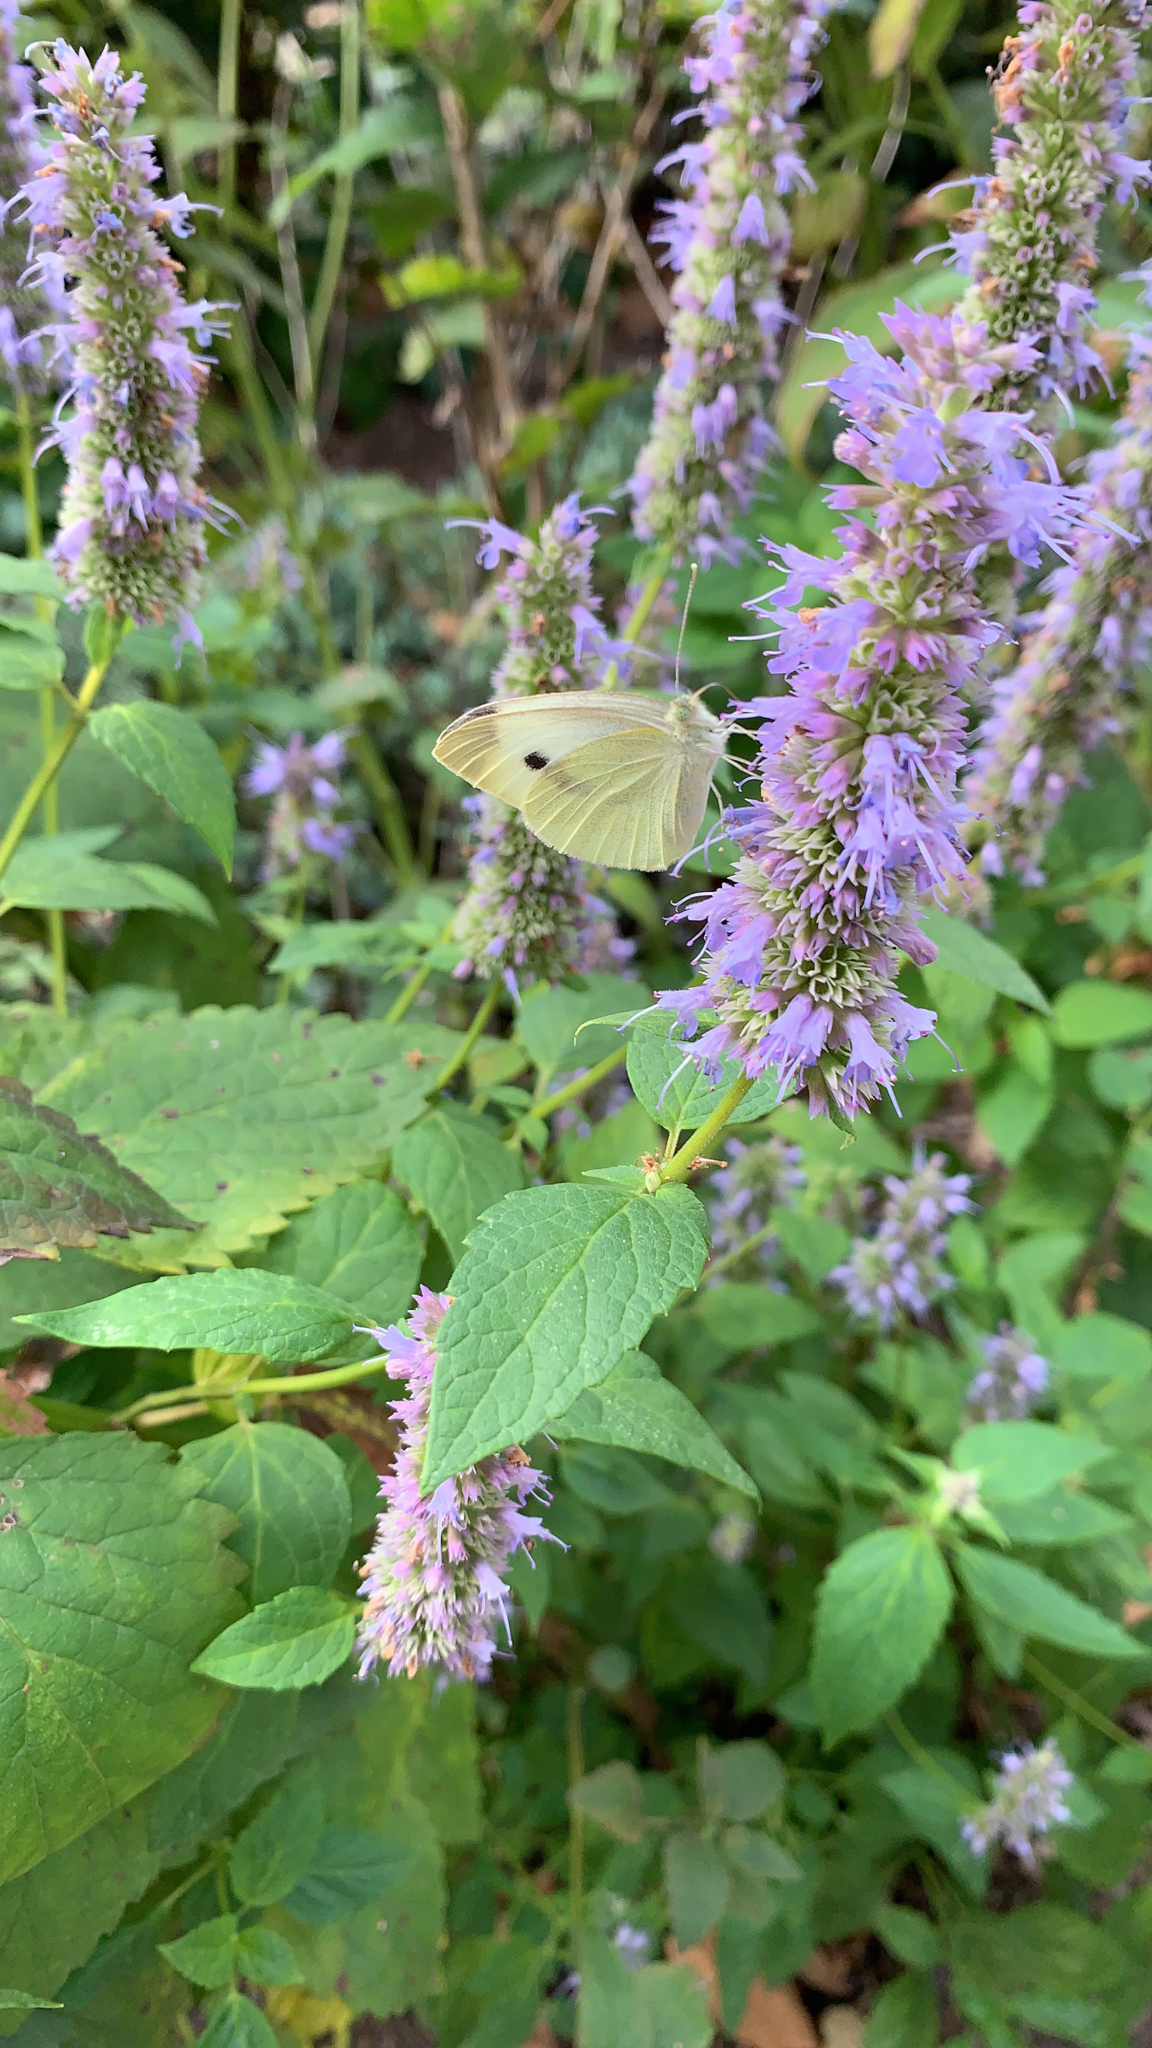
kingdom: Animalia
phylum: Arthropoda
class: Insecta
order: Lepidoptera
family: Pieridae
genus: Pieris
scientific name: Pieris rapae
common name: Small white
